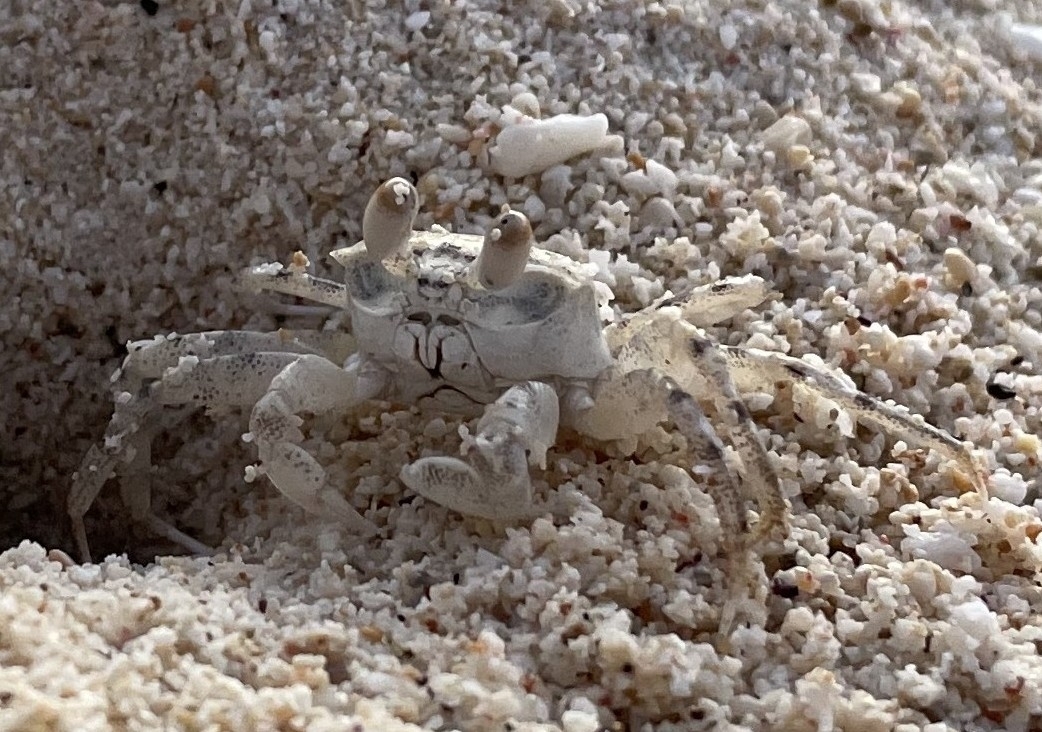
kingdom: Animalia
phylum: Arthropoda
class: Malacostraca
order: Decapoda
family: Ocypodidae
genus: Ocypode
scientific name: Ocypode pallidula
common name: Pallid ghost crab
